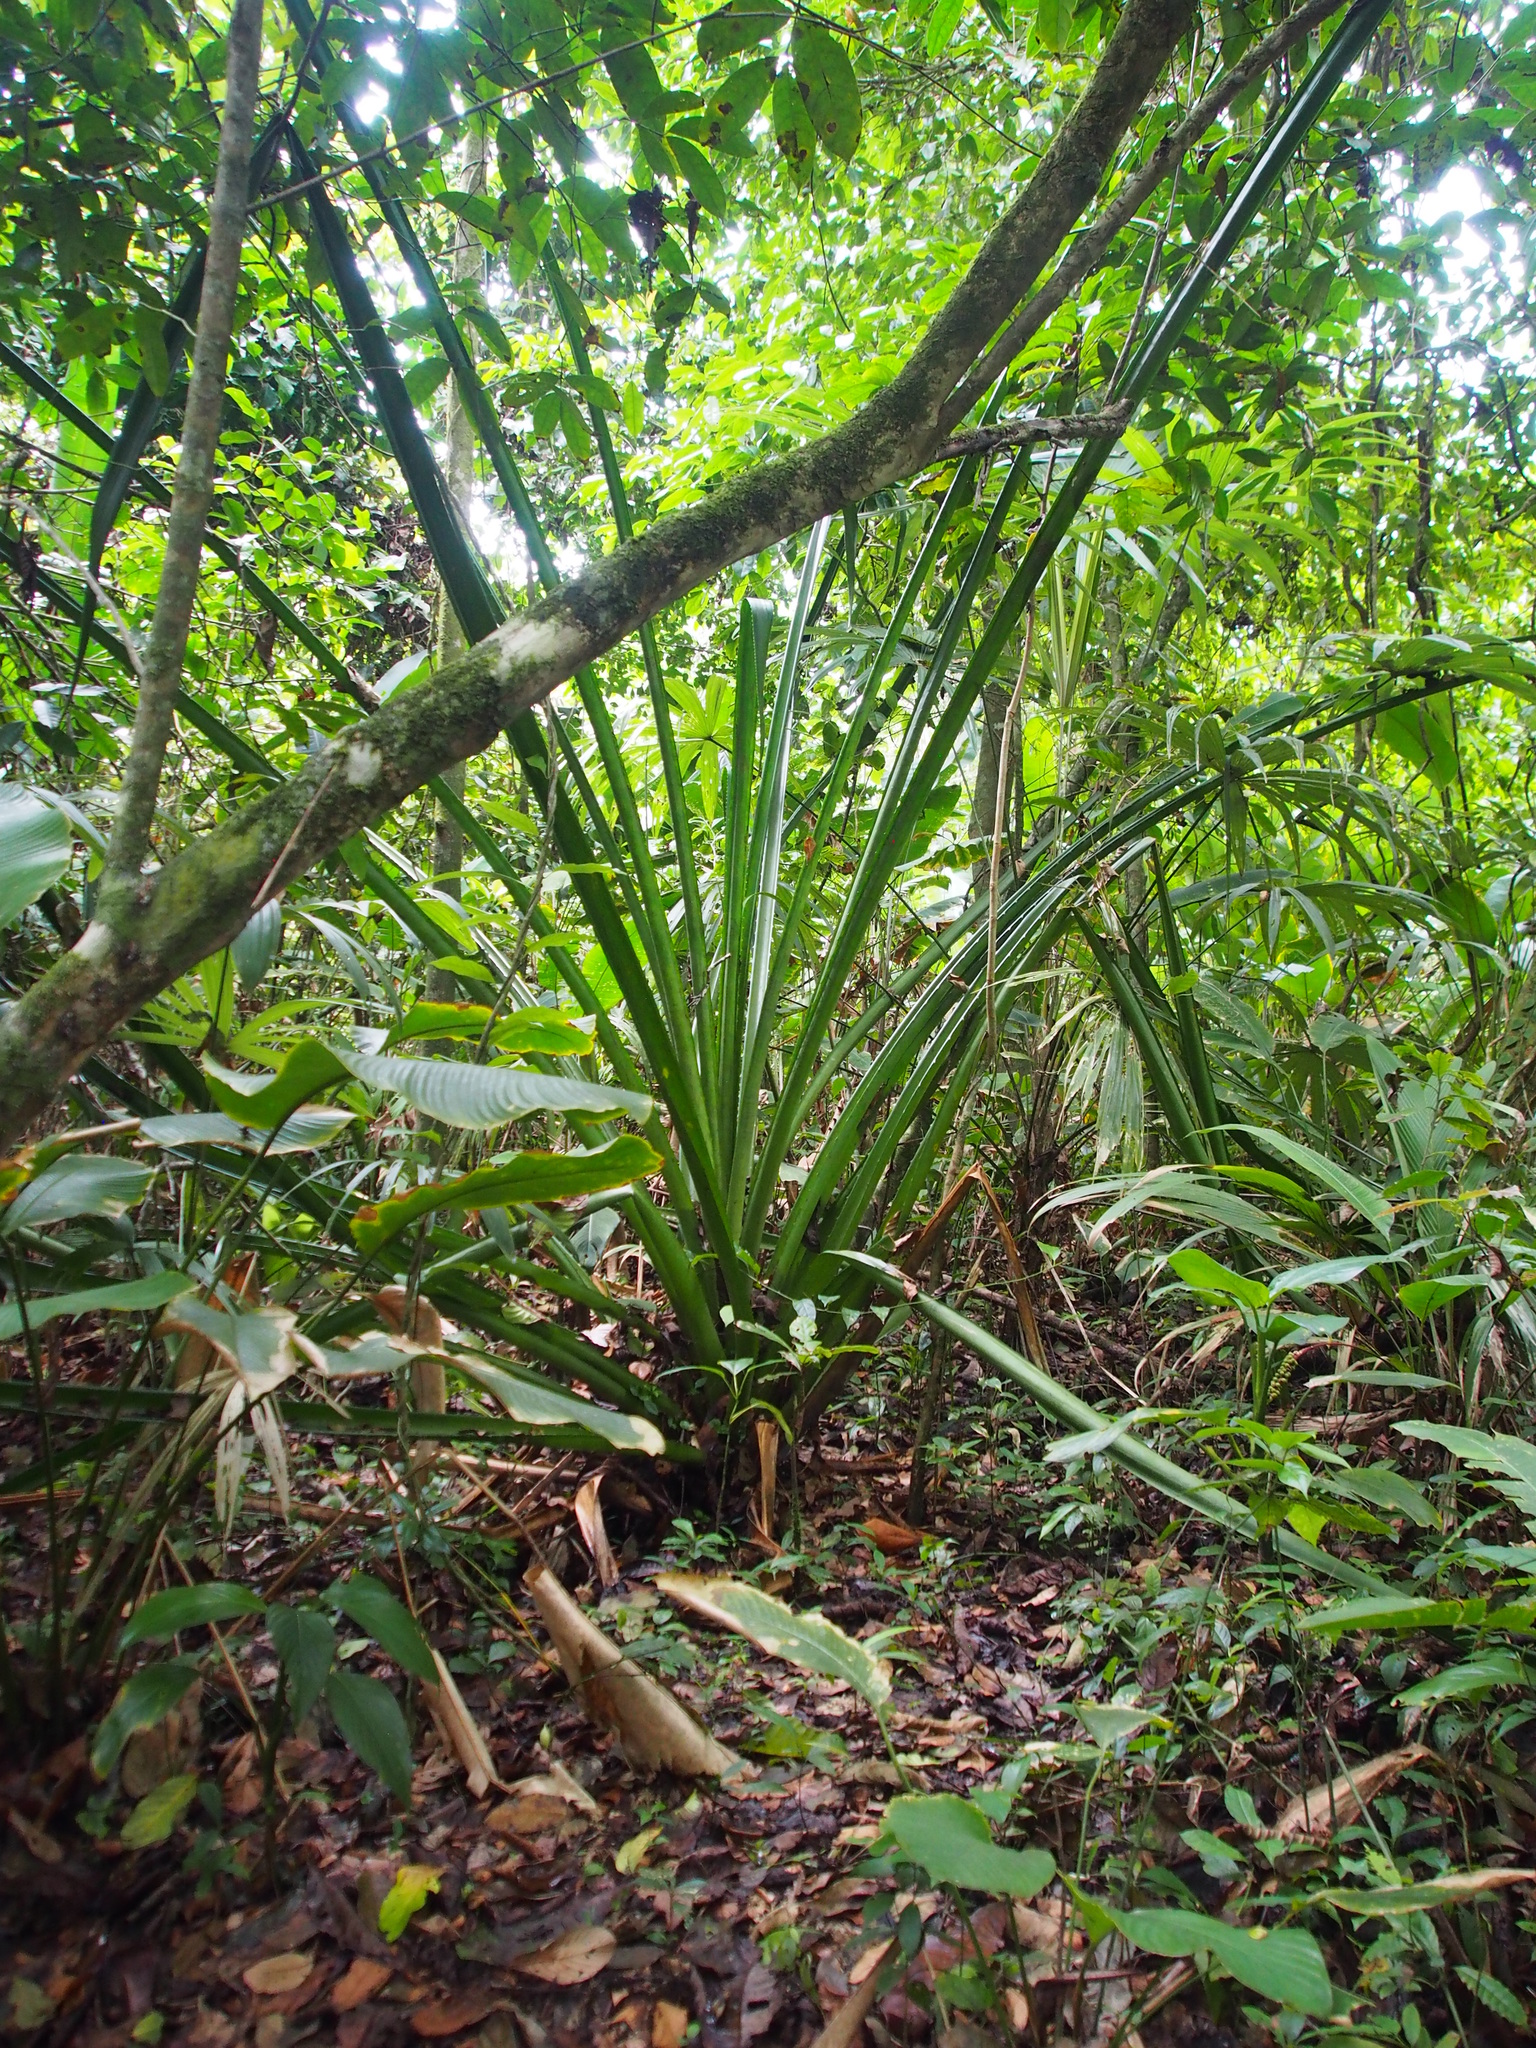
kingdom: Plantae
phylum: Tracheophyta
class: Liliopsida
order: Poales
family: Bromeliaceae
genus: Bromelia
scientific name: Bromelia pinguin
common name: Pinguin
